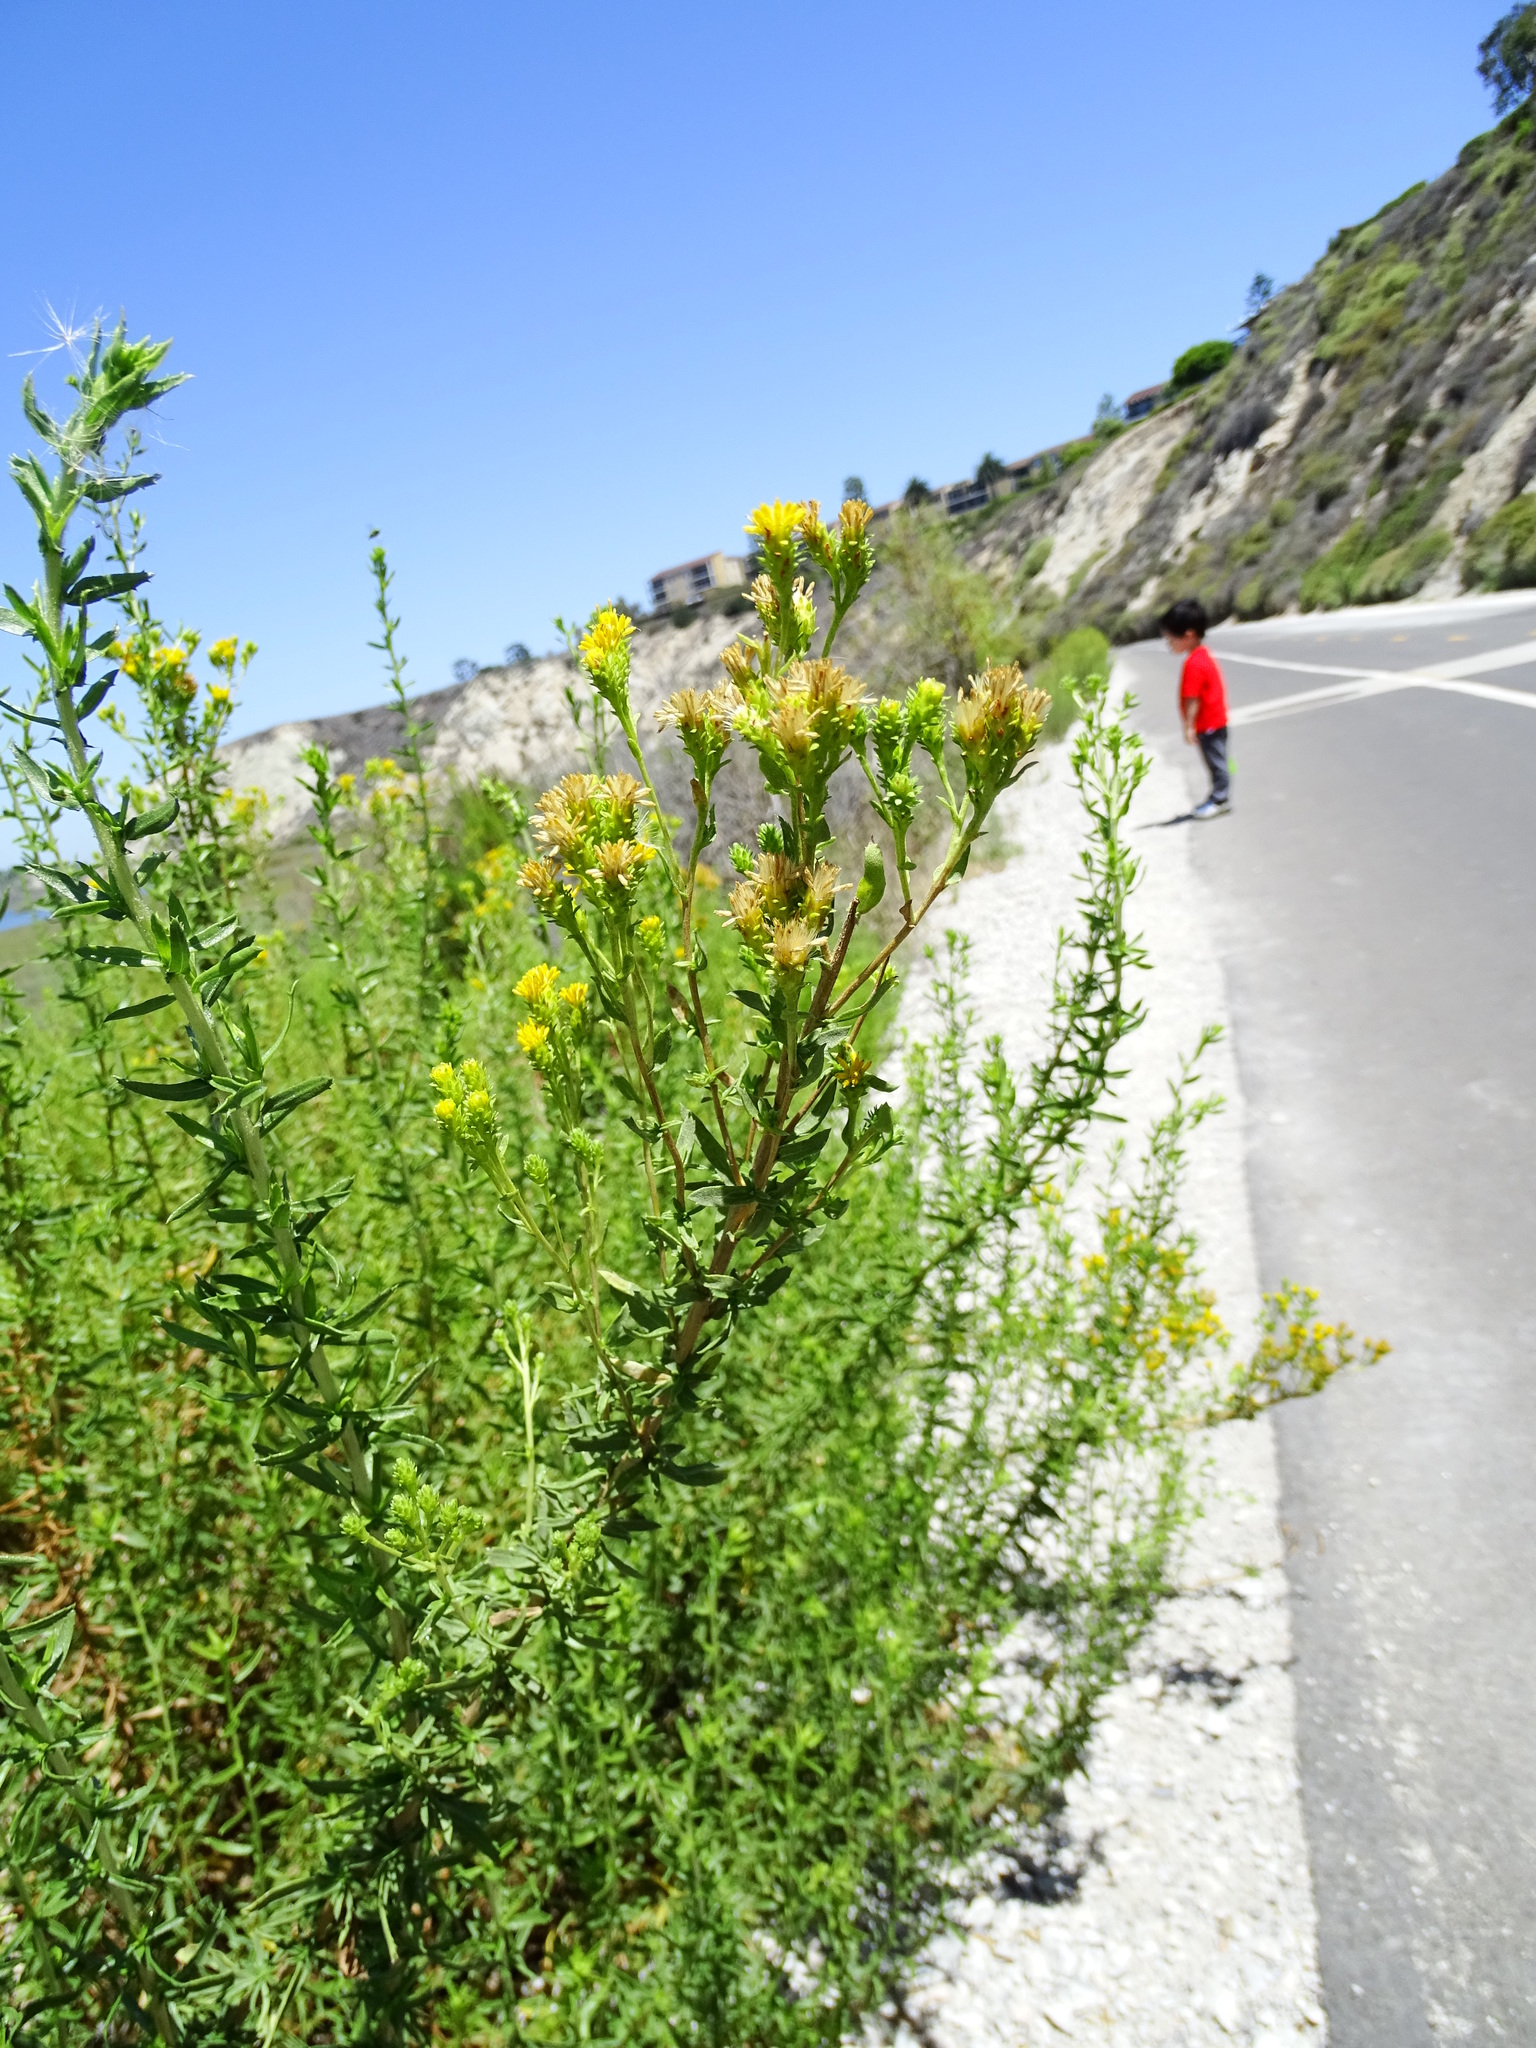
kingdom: Plantae
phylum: Tracheophyta
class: Magnoliopsida
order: Asterales
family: Asteraceae
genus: Isocoma
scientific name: Isocoma menziesii
